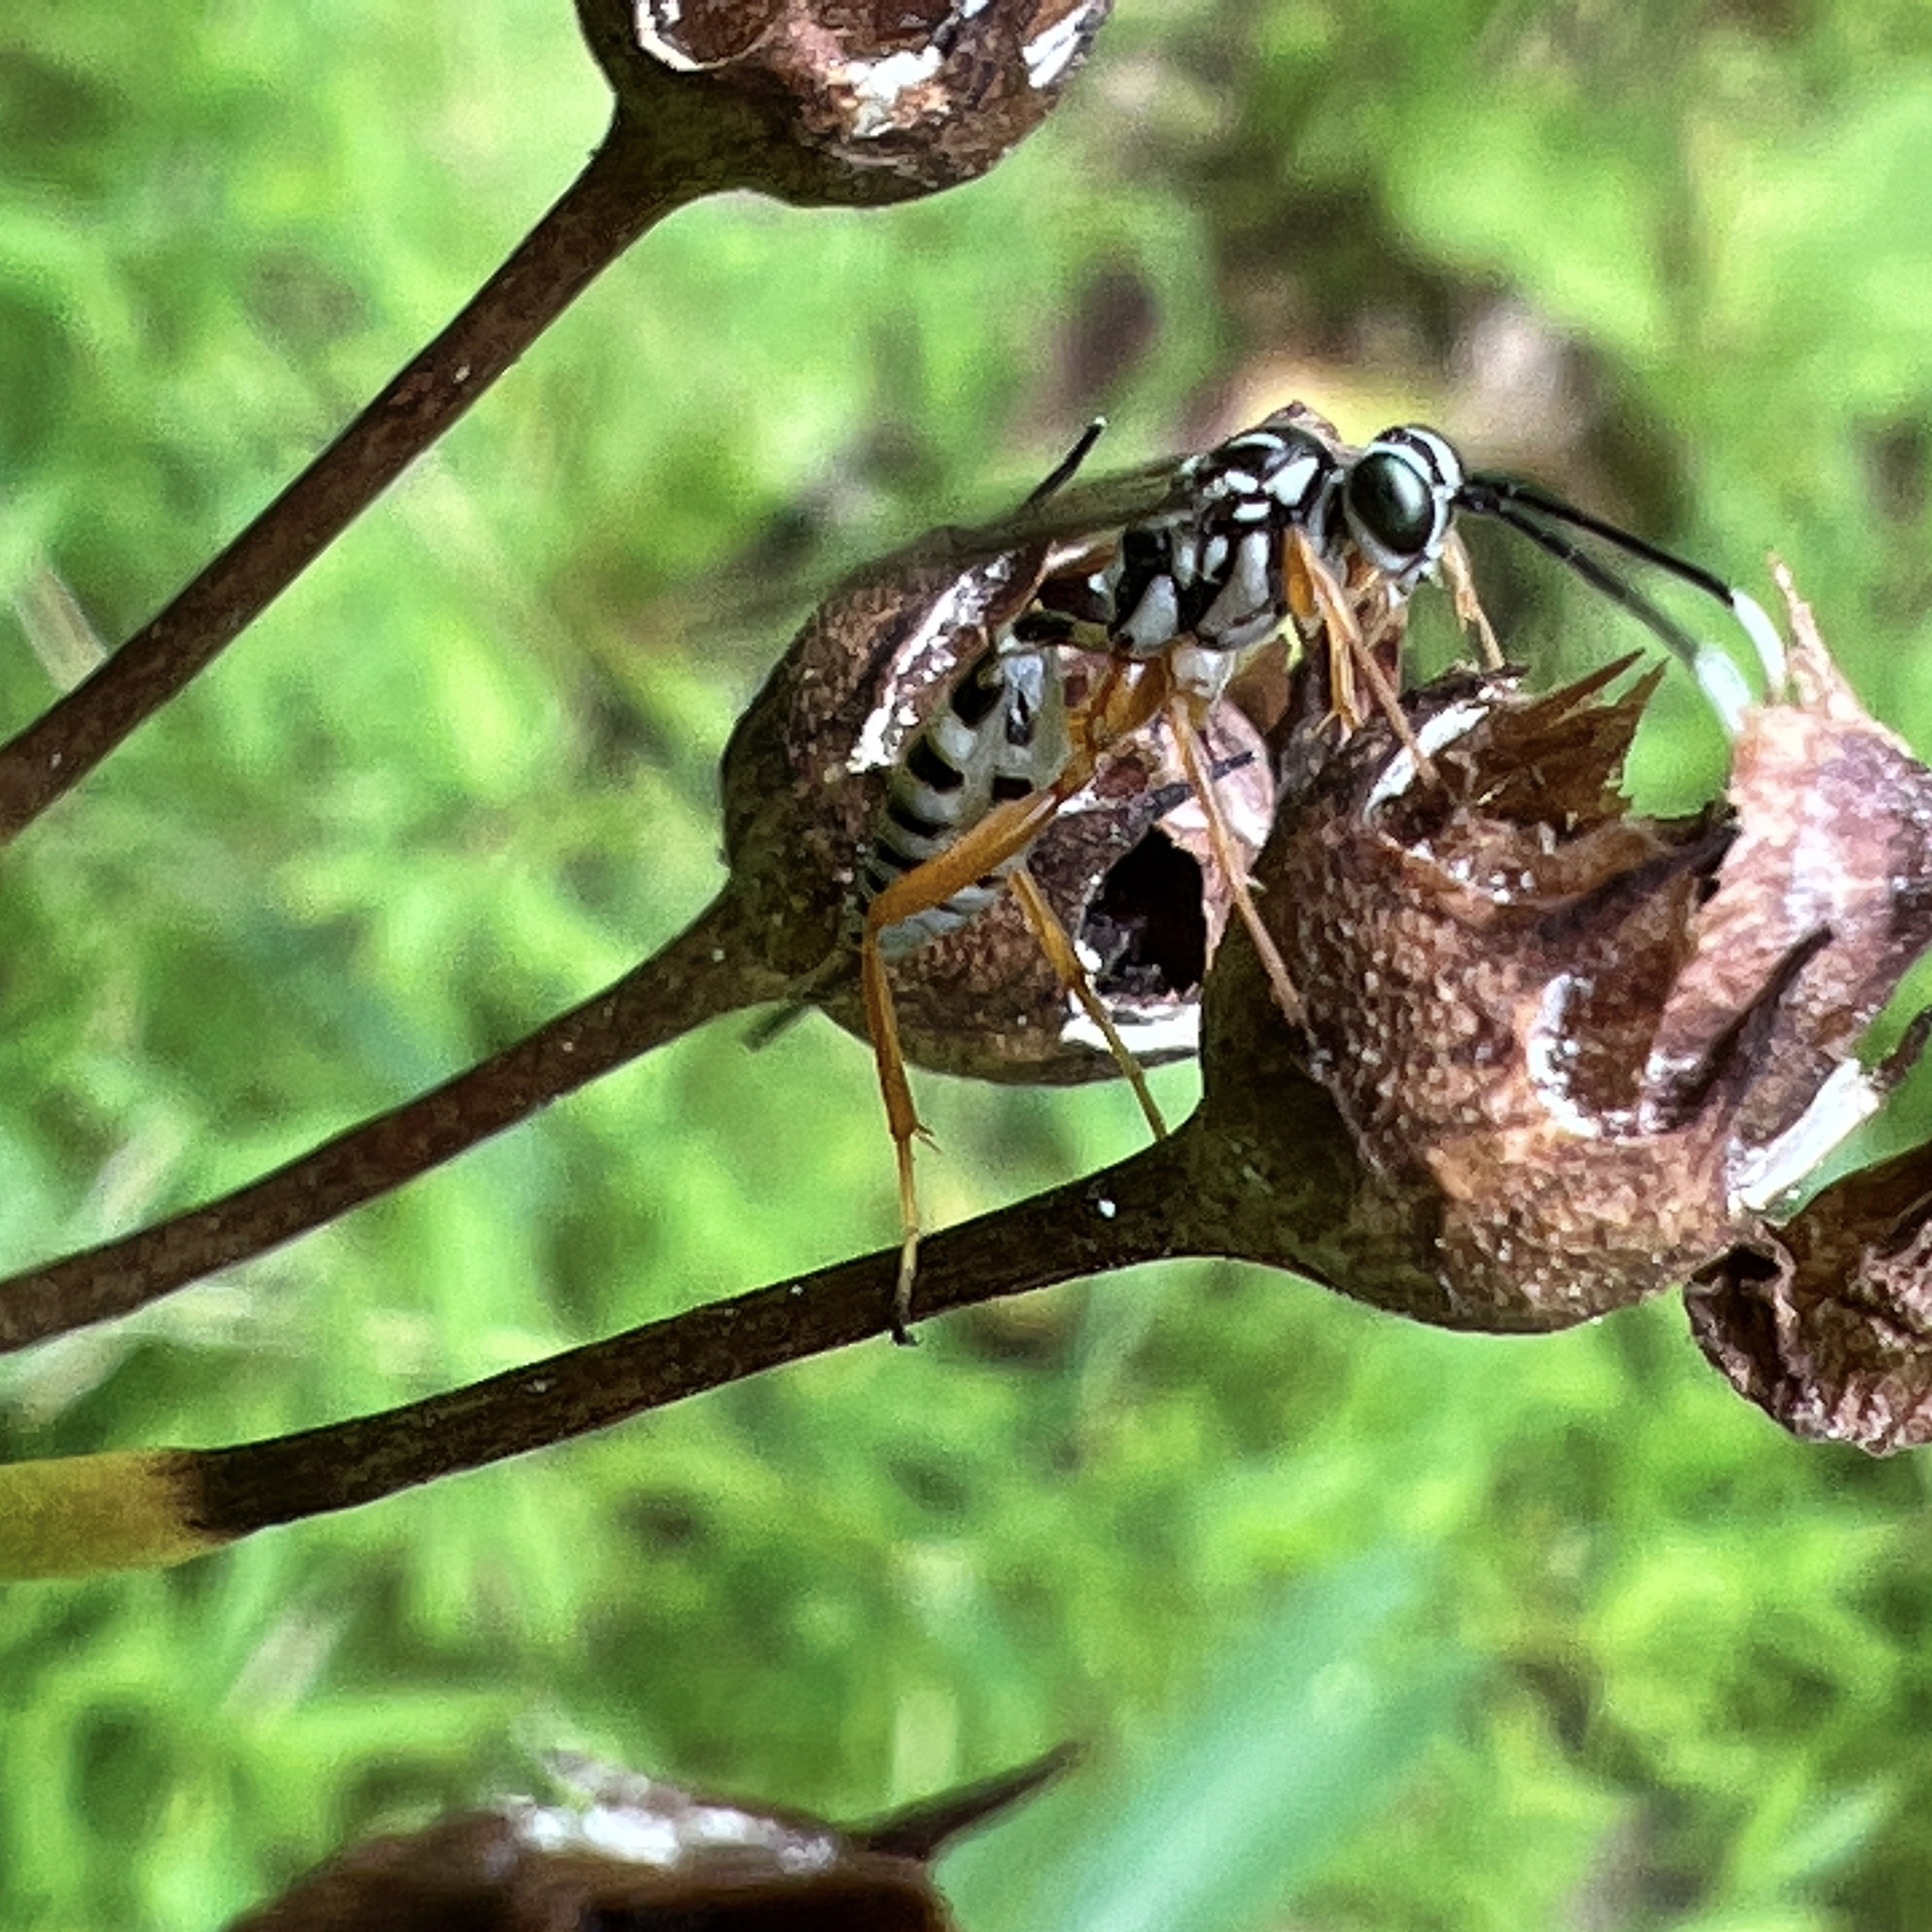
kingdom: Animalia
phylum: Arthropoda
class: Insecta
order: Hymenoptera
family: Ichneumonidae
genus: Lymeon
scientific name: Lymeon orbus
